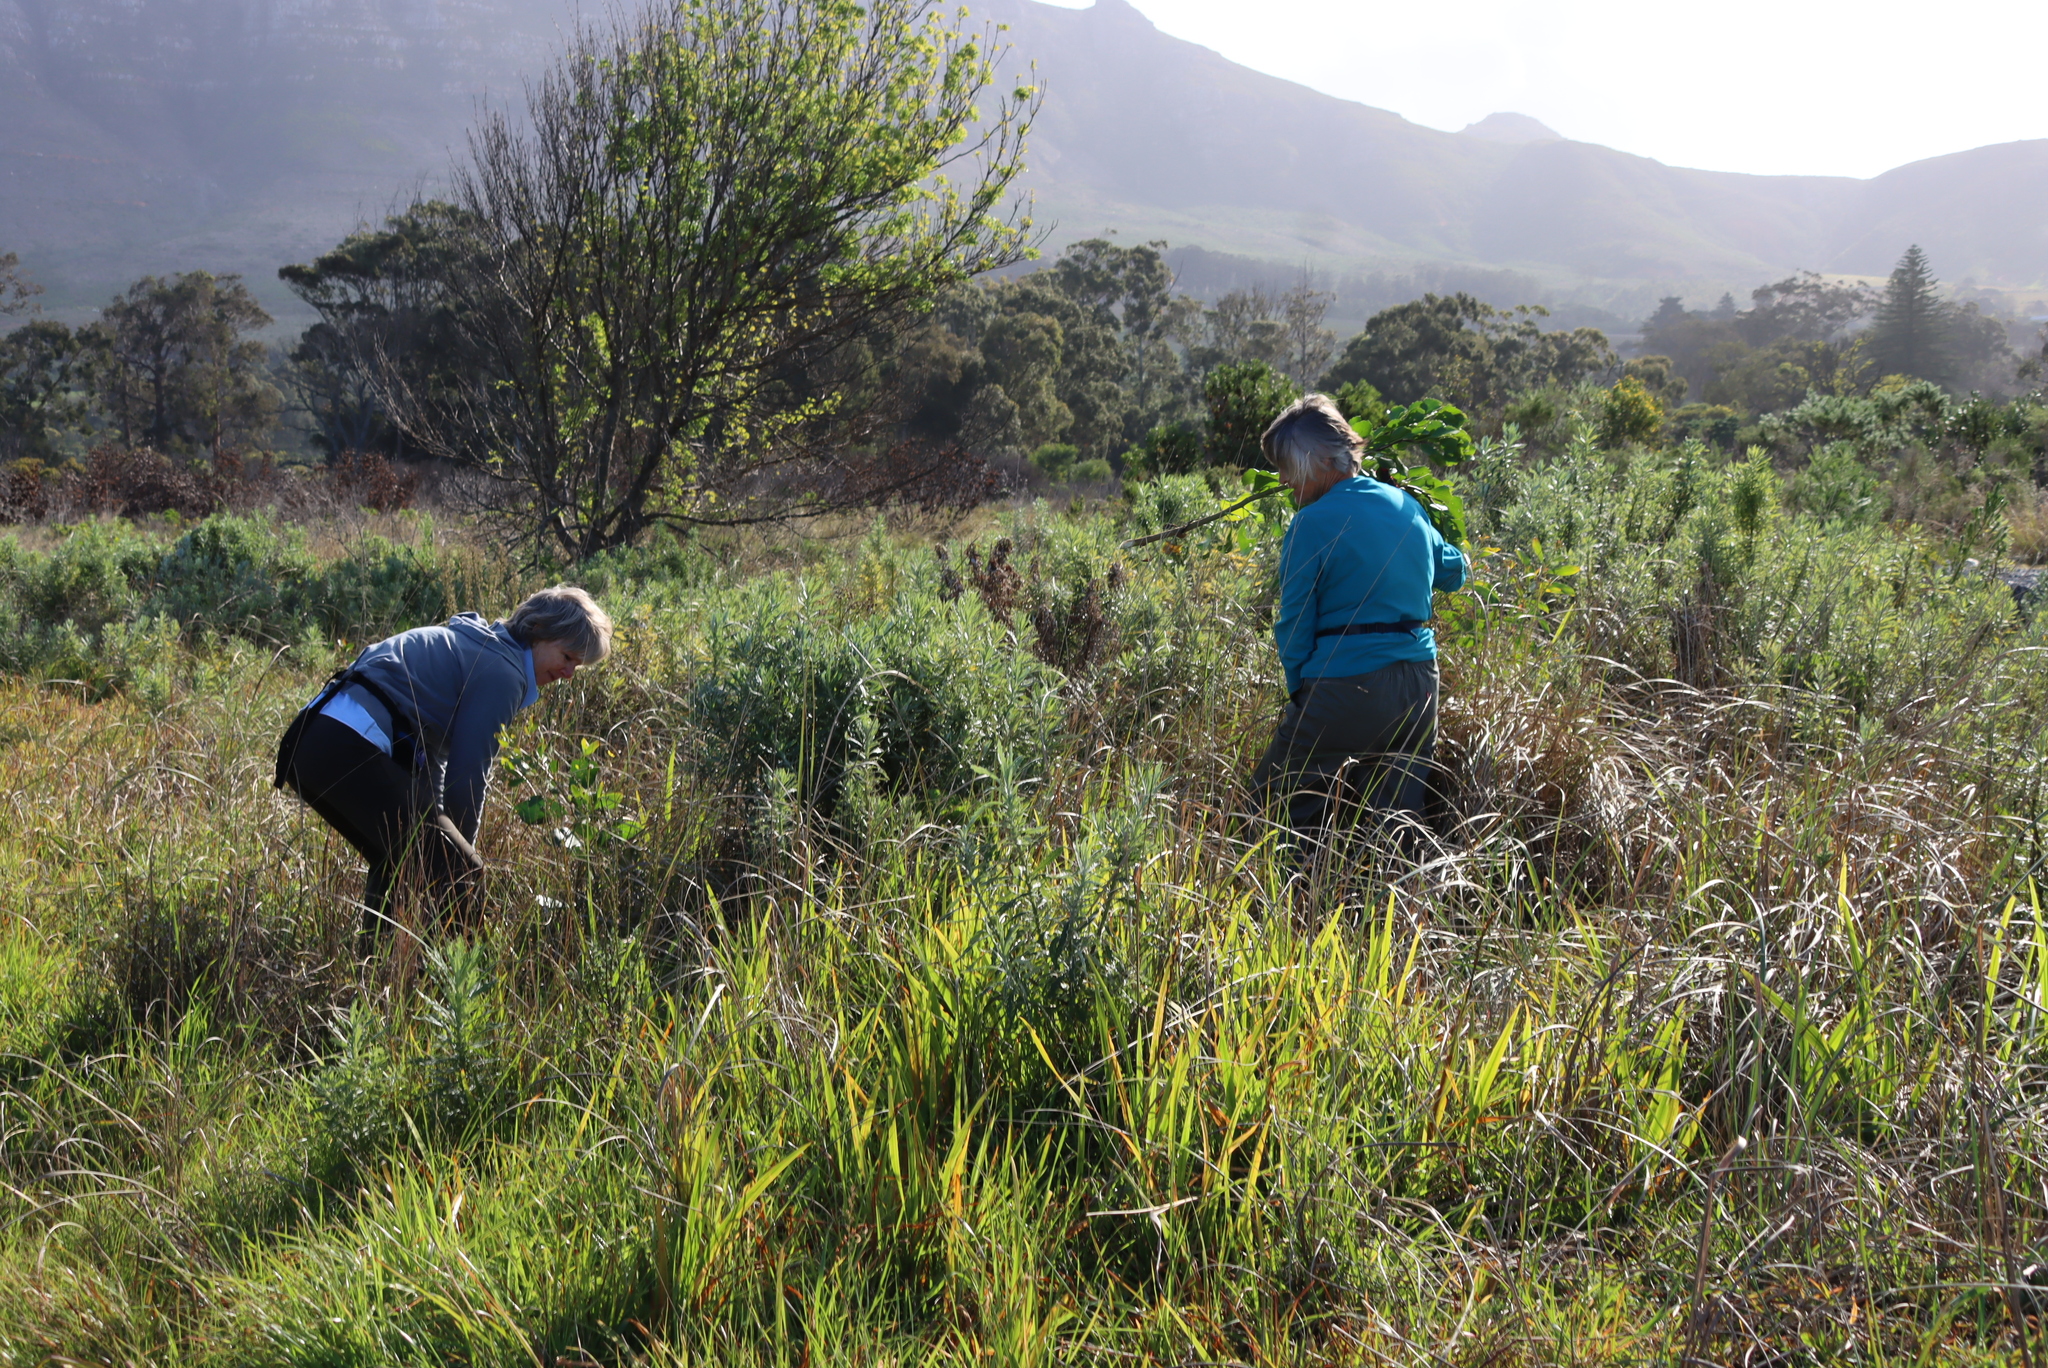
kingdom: Plantae
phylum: Tracheophyta
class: Magnoliopsida
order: Fabales
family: Fabaceae
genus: Acacia
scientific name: Acacia pycnantha
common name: Golden wattle
